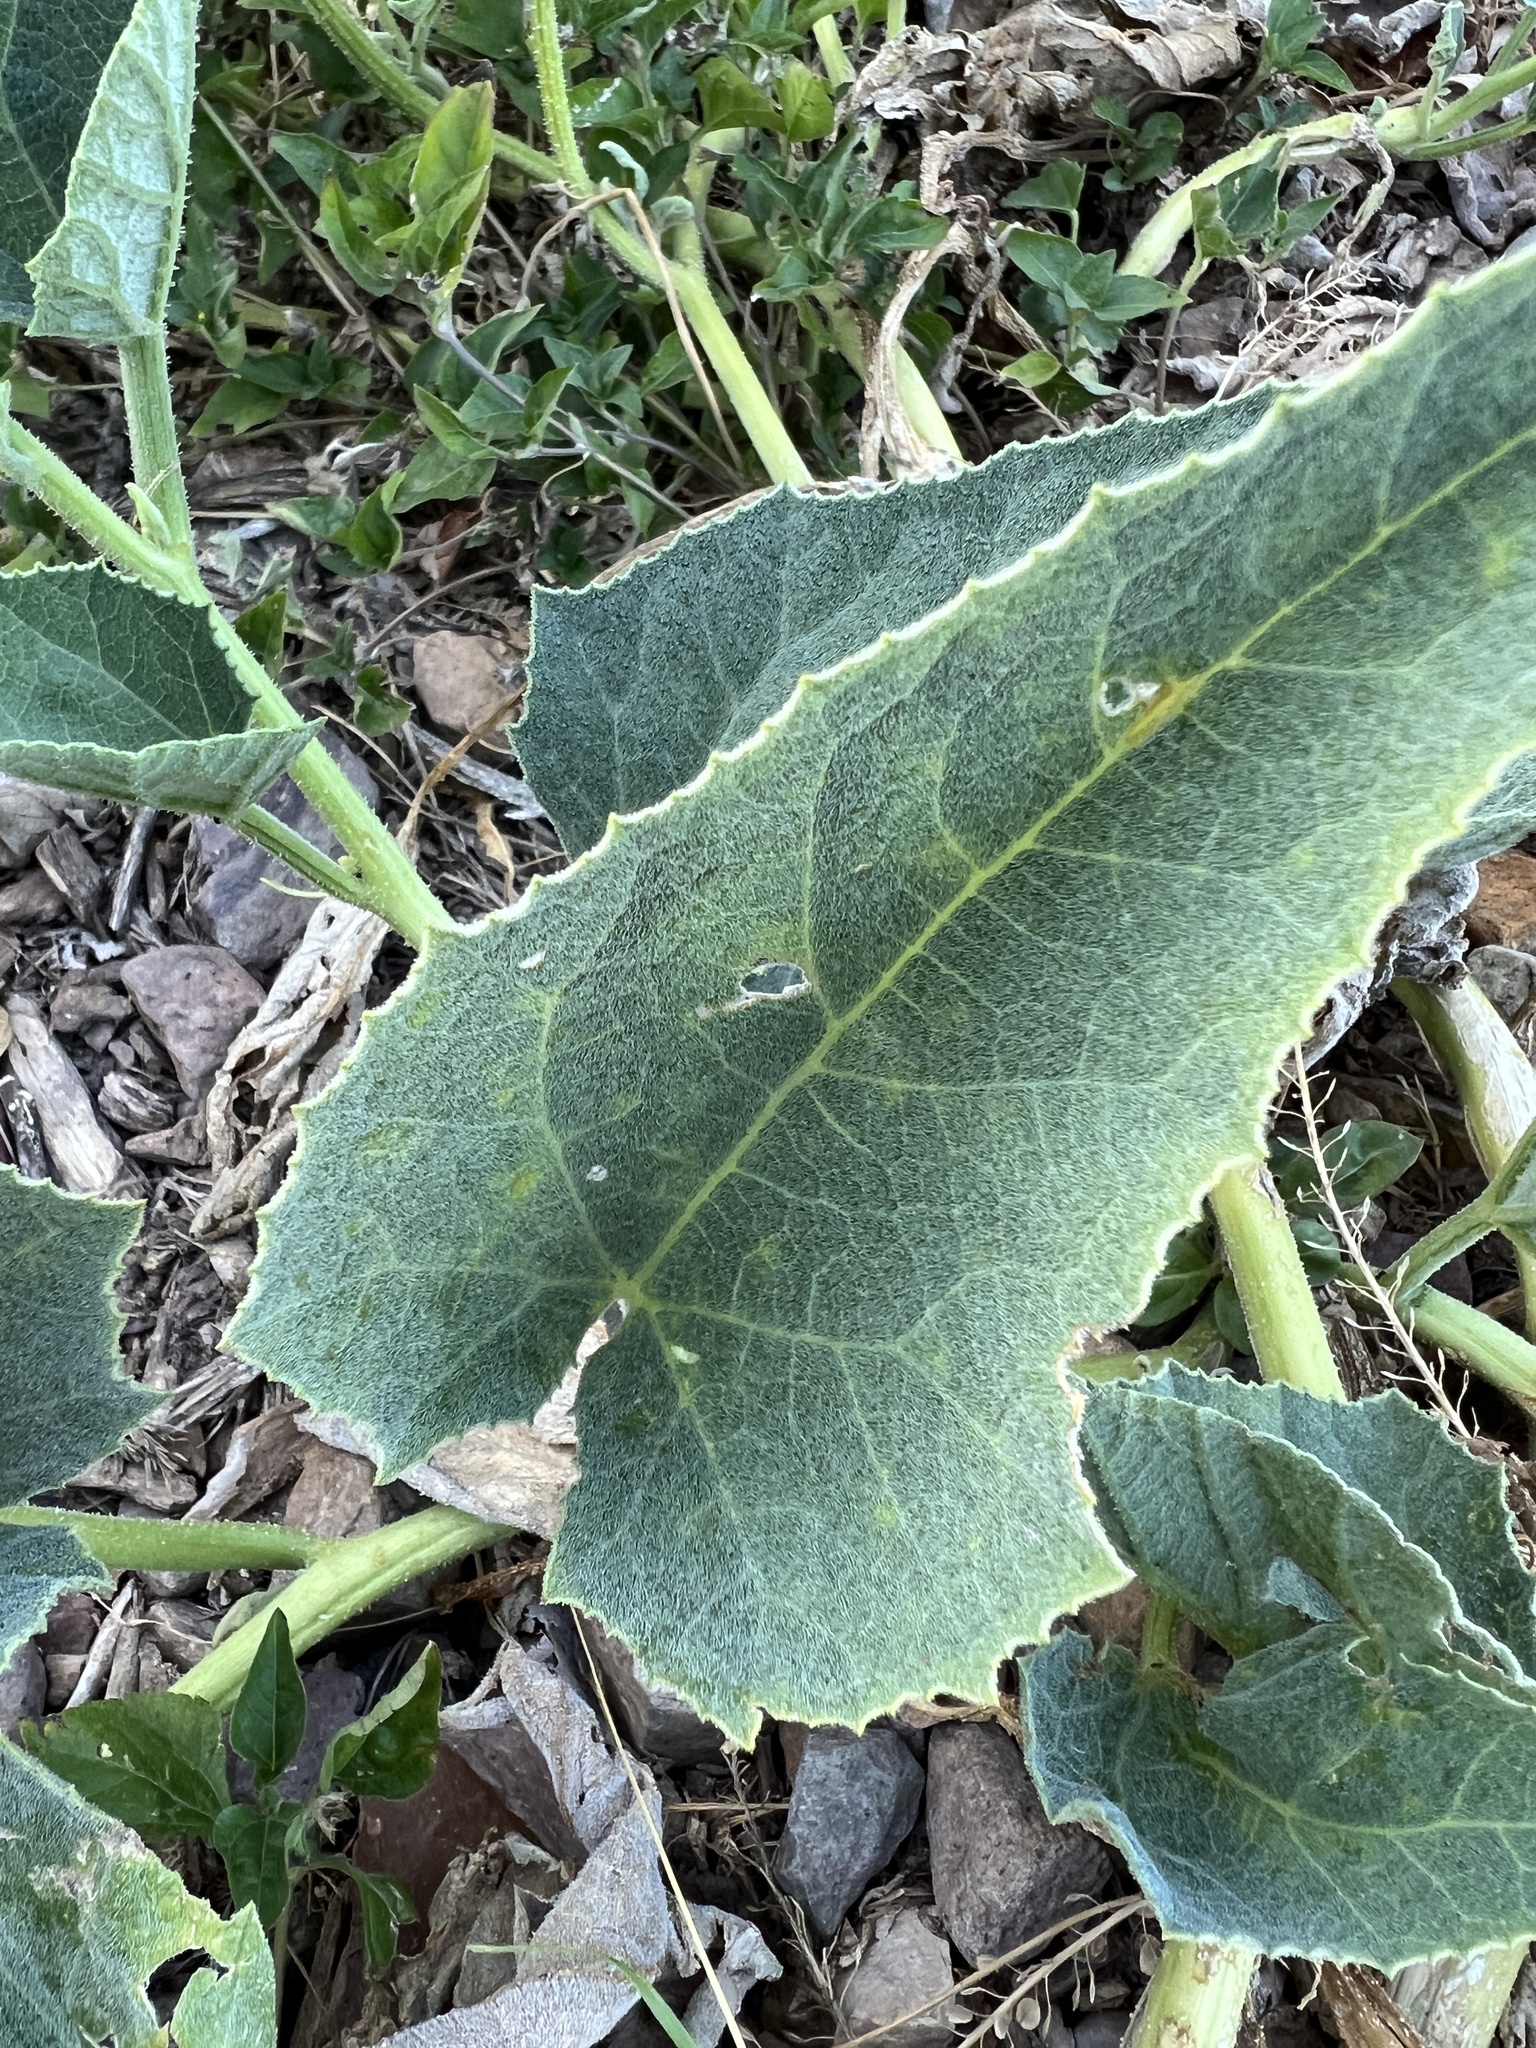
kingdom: Plantae
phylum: Tracheophyta
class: Magnoliopsida
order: Cucurbitales
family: Cucurbitaceae
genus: Cucurbita
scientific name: Cucurbita foetidissima
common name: Buffalo gourd
